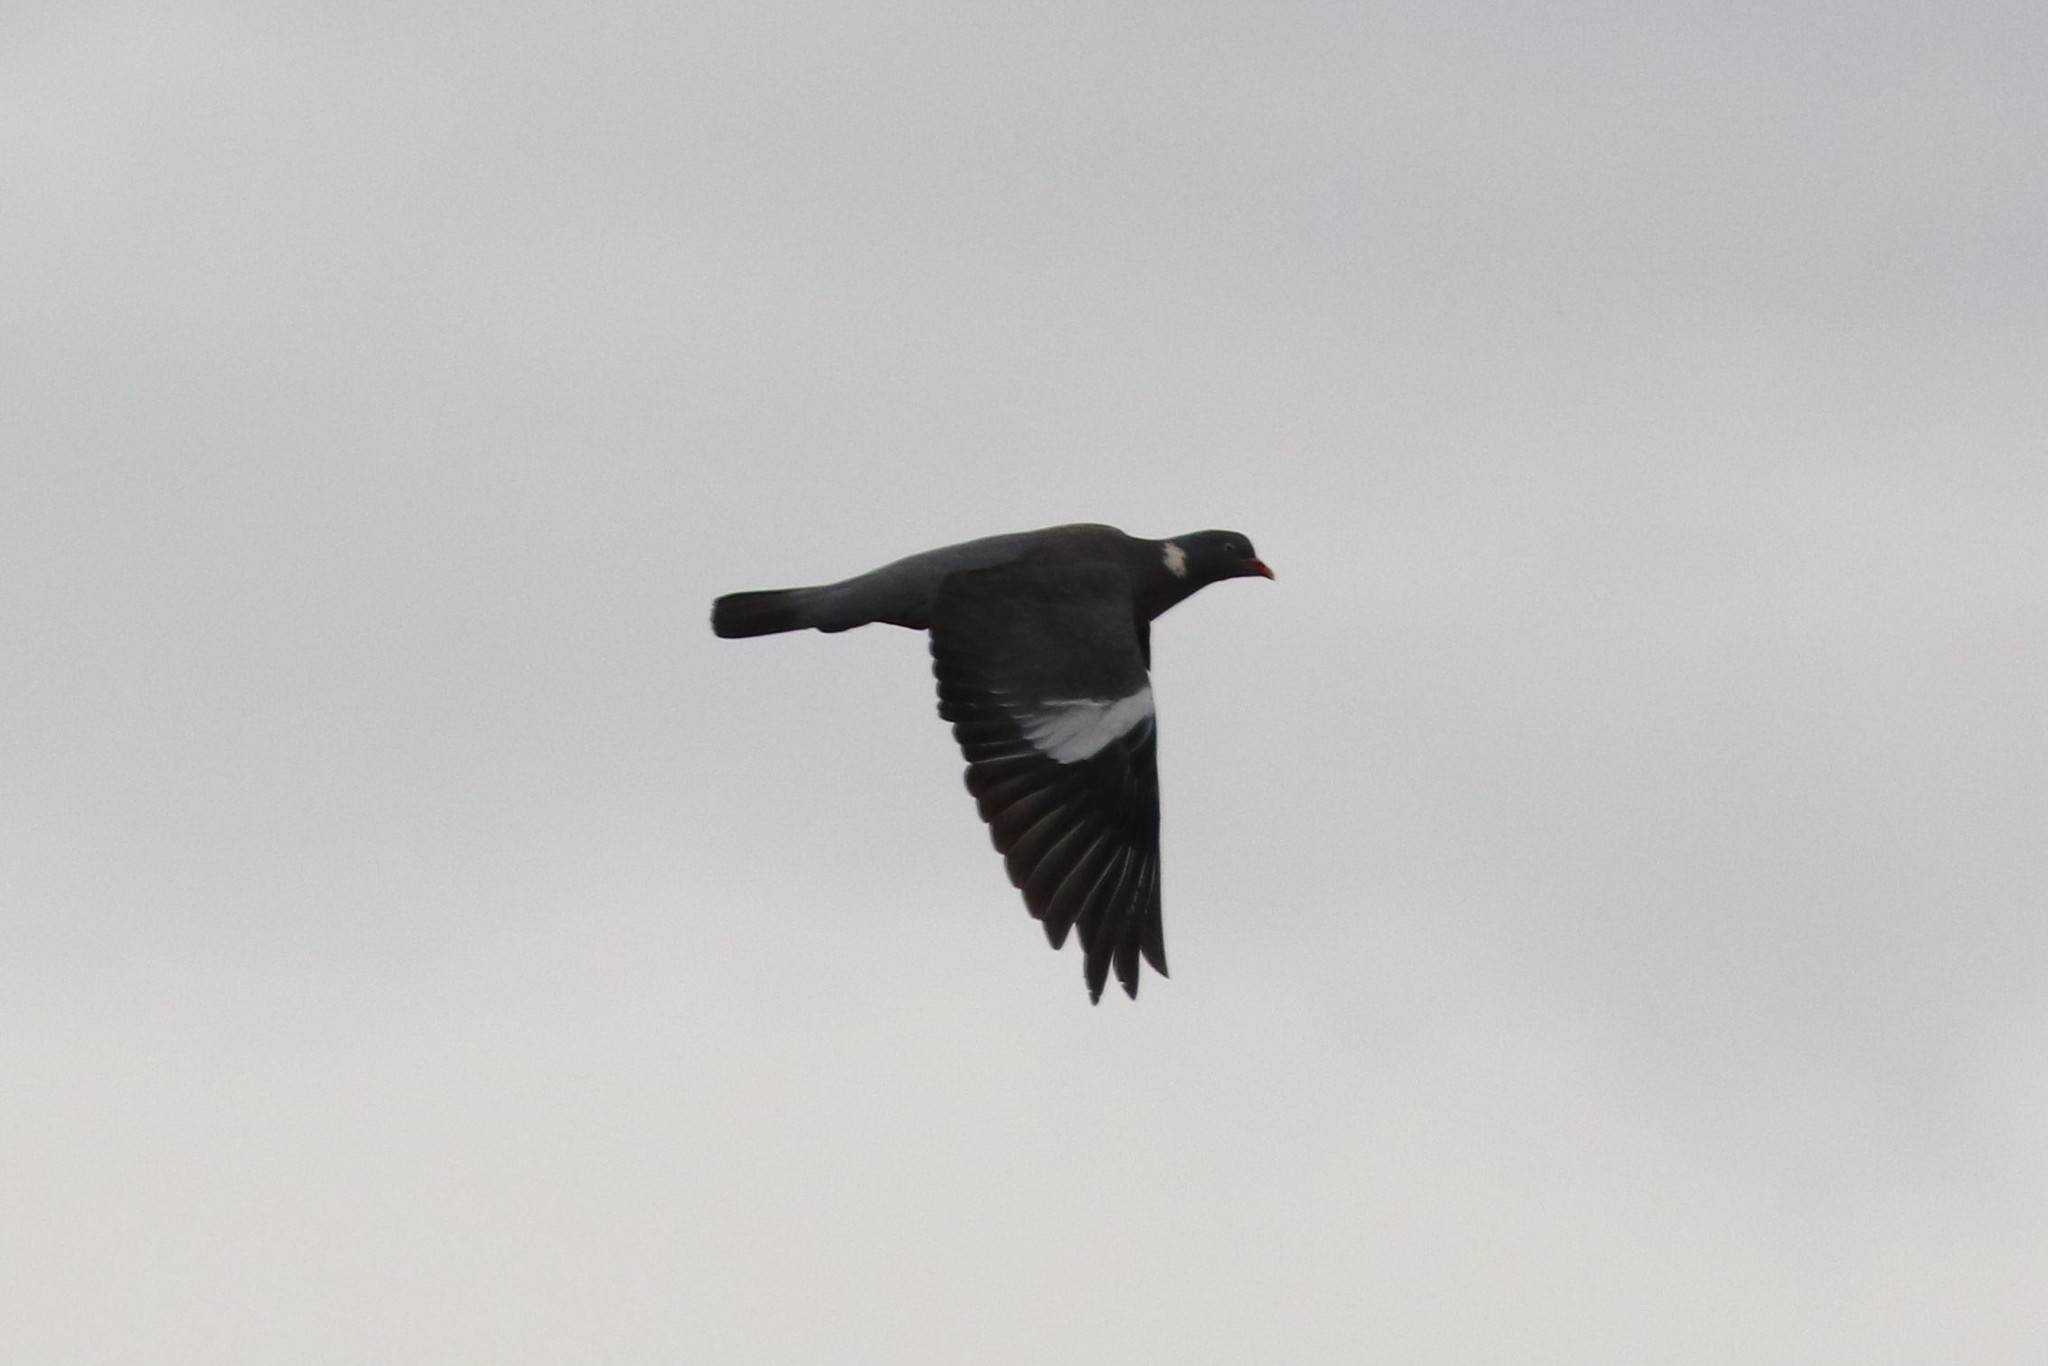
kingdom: Animalia
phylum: Chordata
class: Aves
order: Columbiformes
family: Columbidae
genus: Columba
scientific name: Columba palumbus
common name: Common wood pigeon
